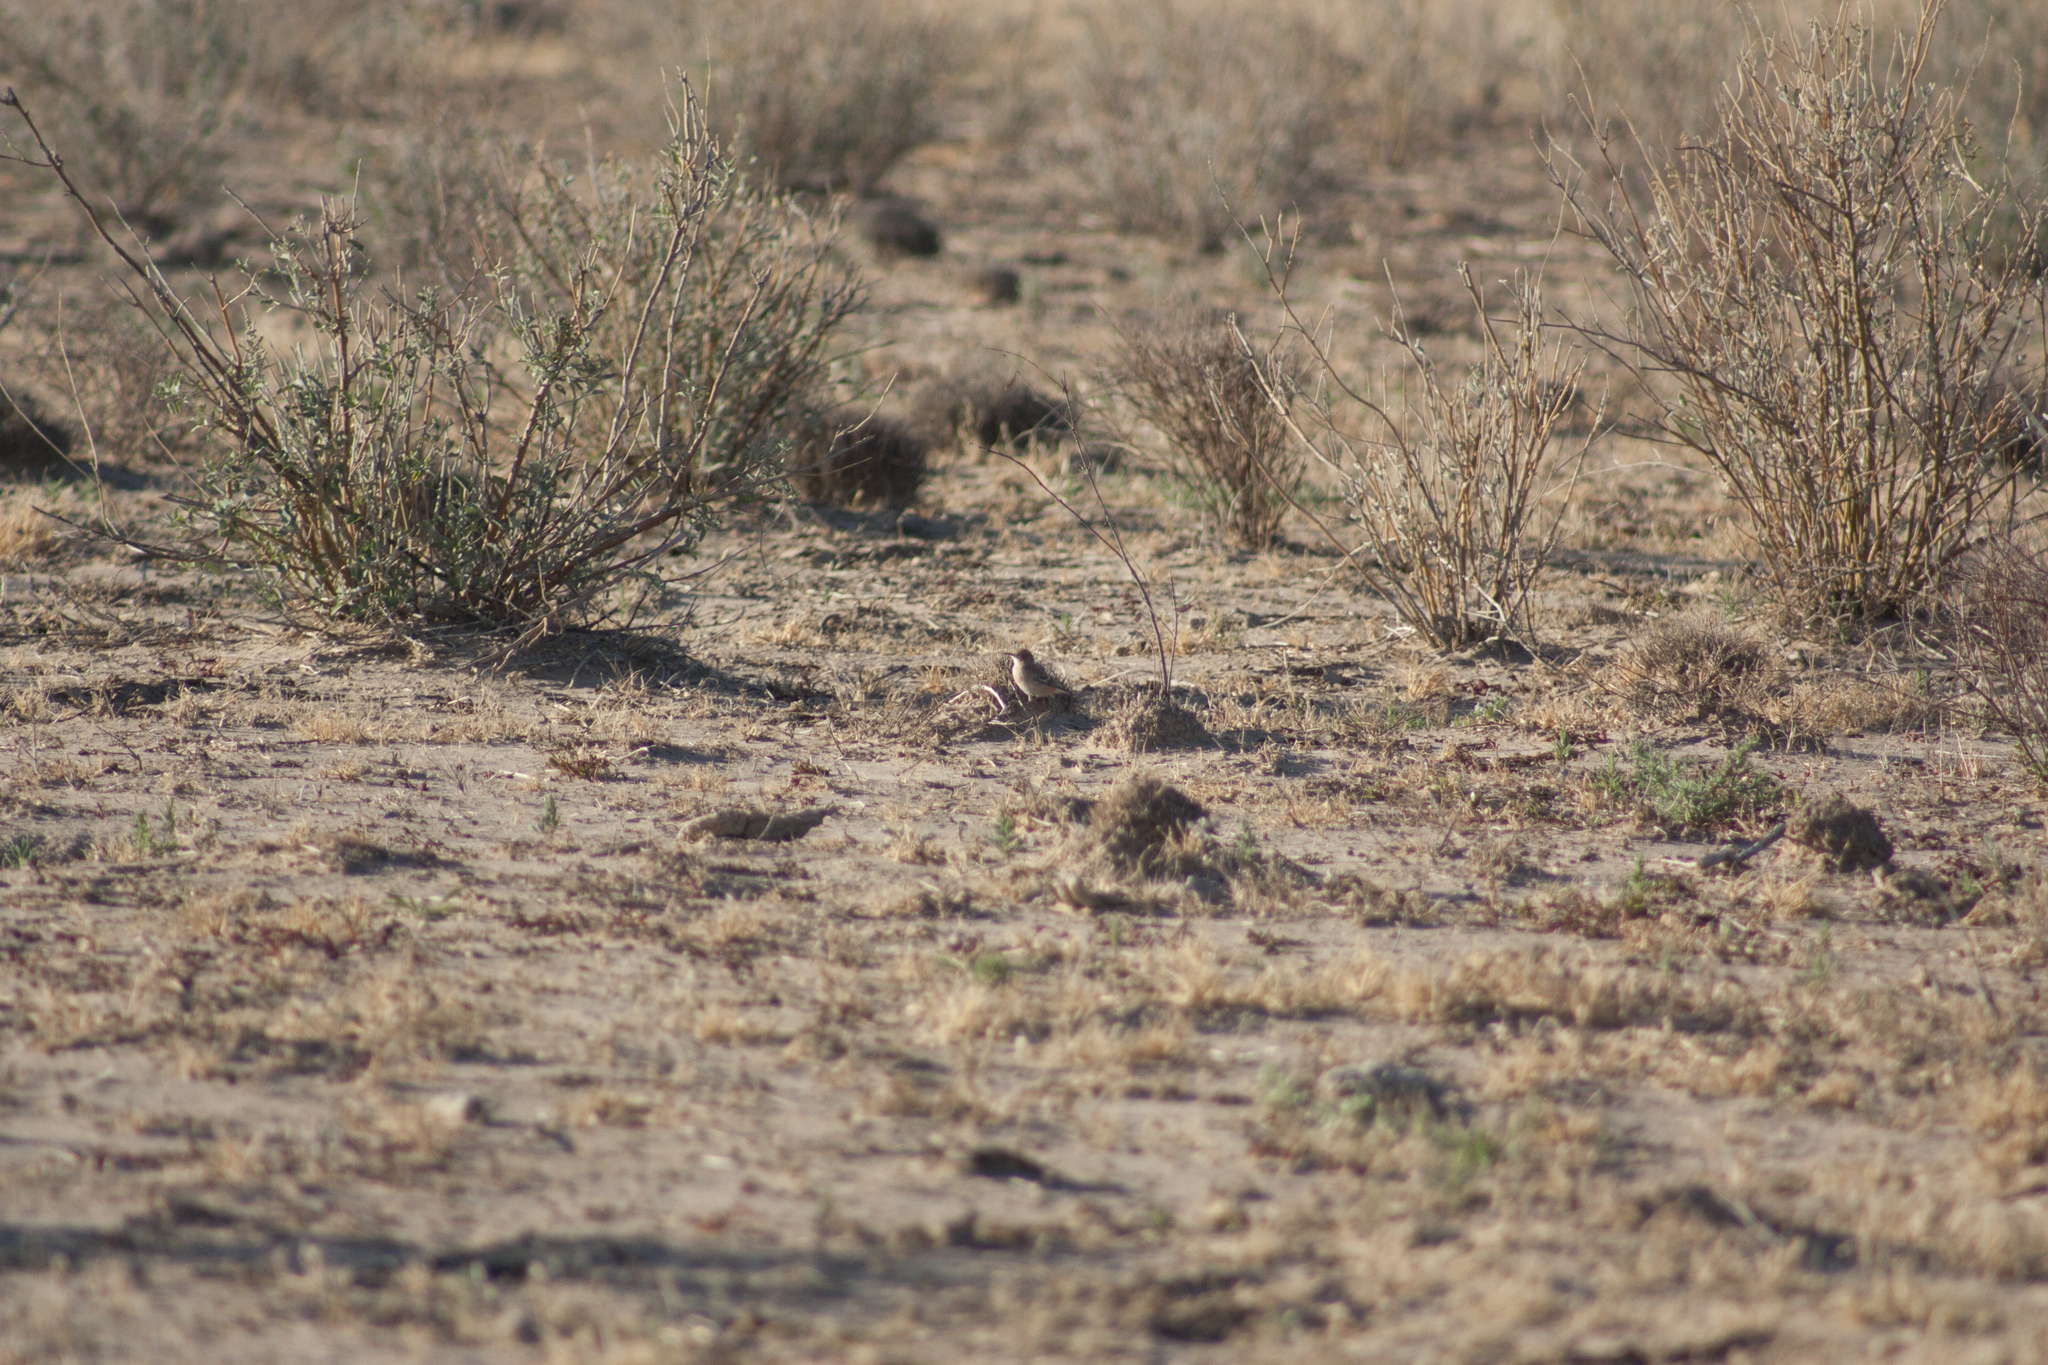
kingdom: Animalia
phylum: Chordata
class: Aves
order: Passeriformes
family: Meliphagidae
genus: Epthianura
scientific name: Epthianura tricolor
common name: Crimson chat
